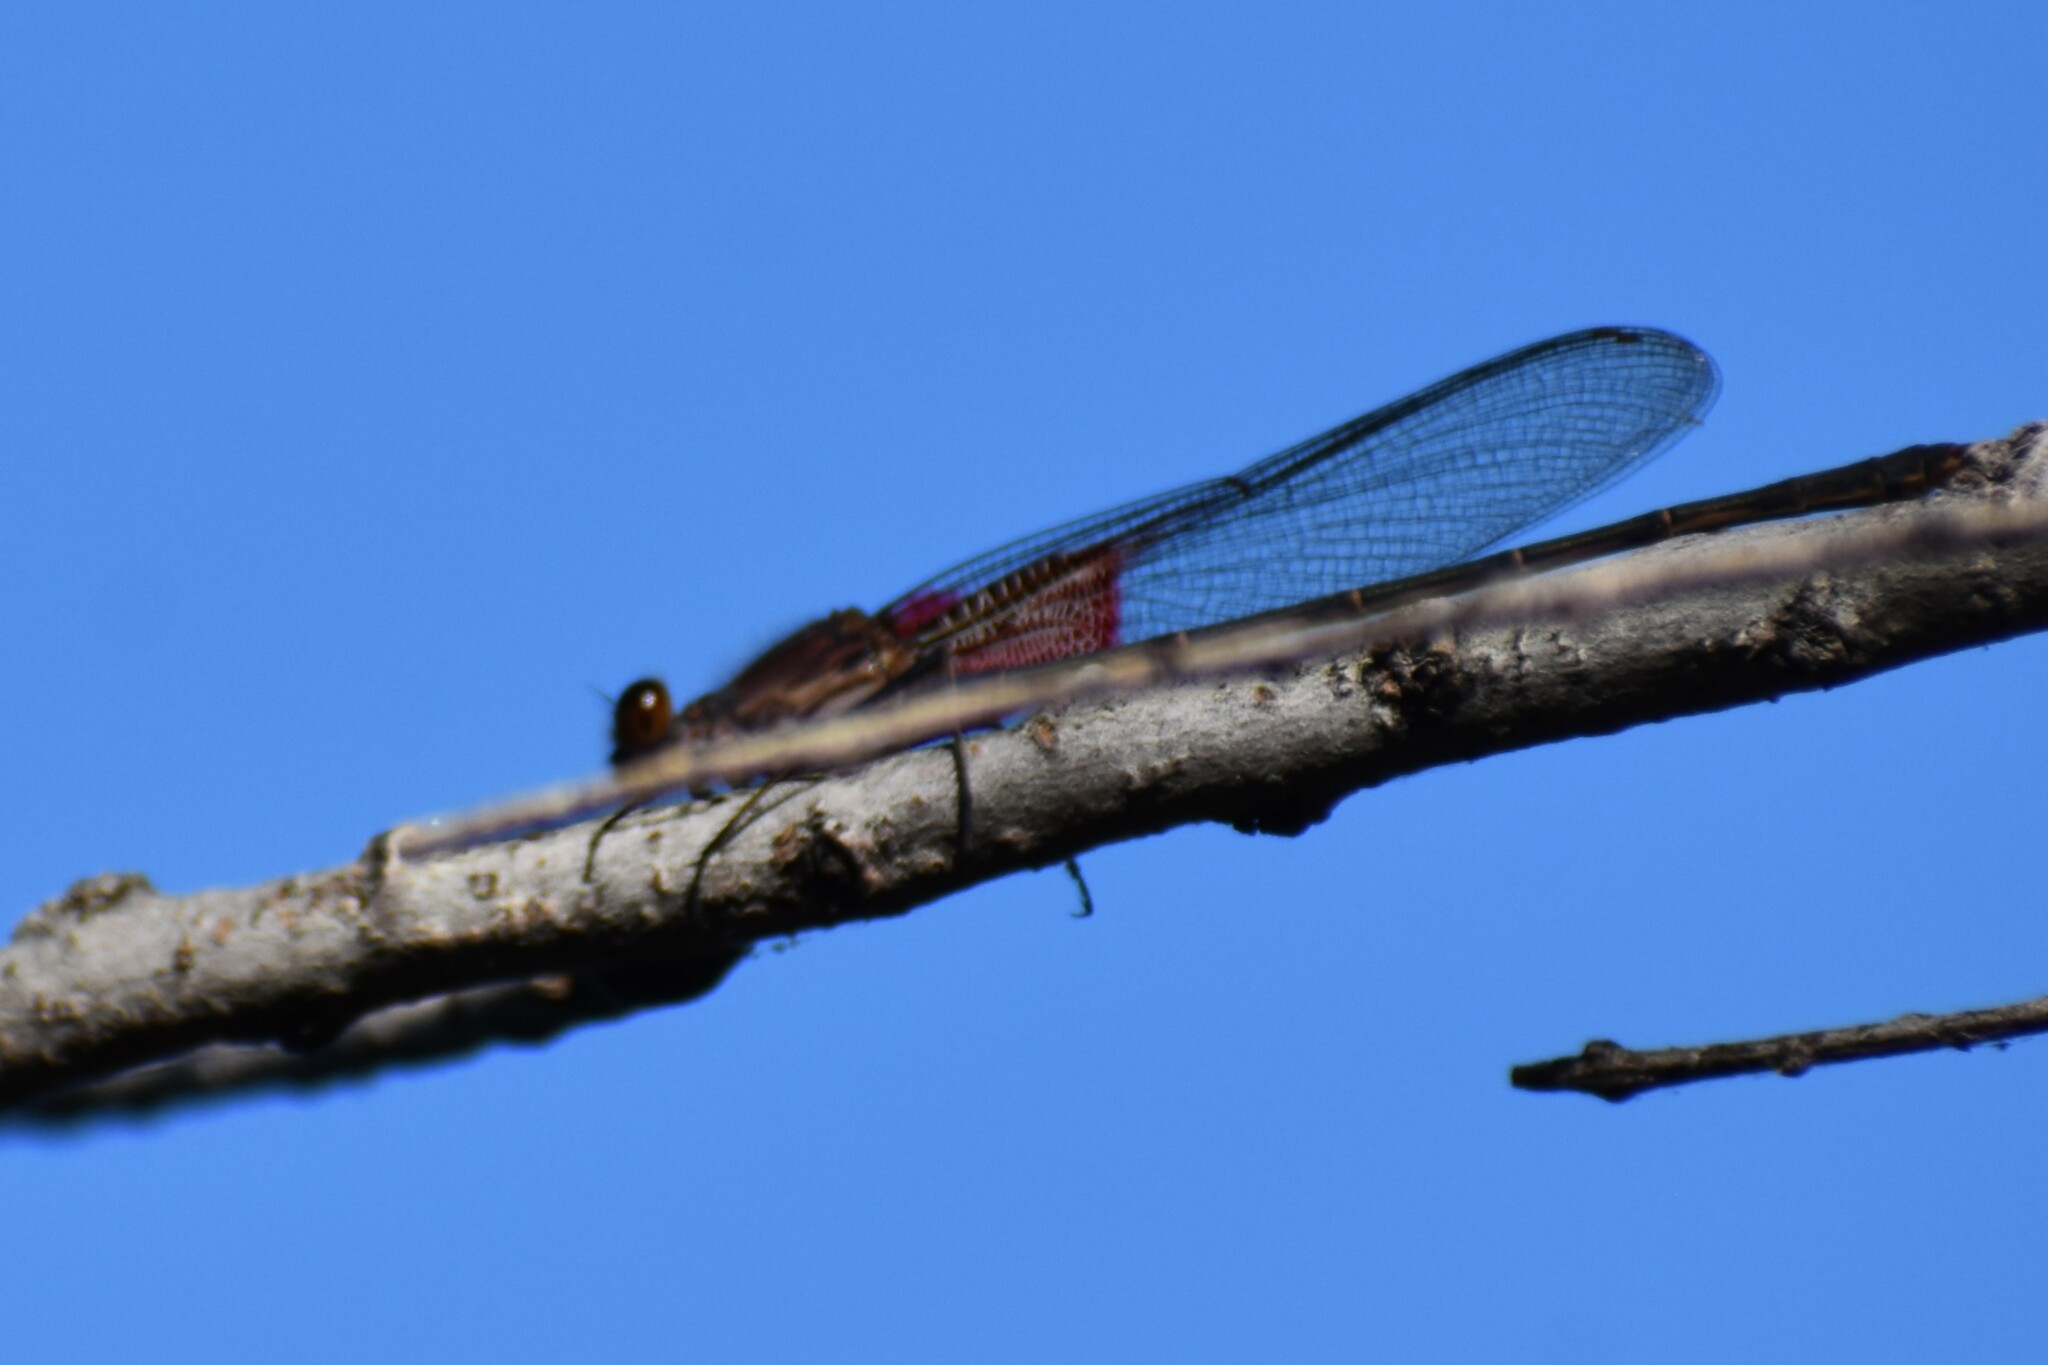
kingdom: Animalia
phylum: Arthropoda
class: Insecta
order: Odonata
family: Calopterygidae
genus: Hetaerina
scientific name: Hetaerina americana
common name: American rubyspot
